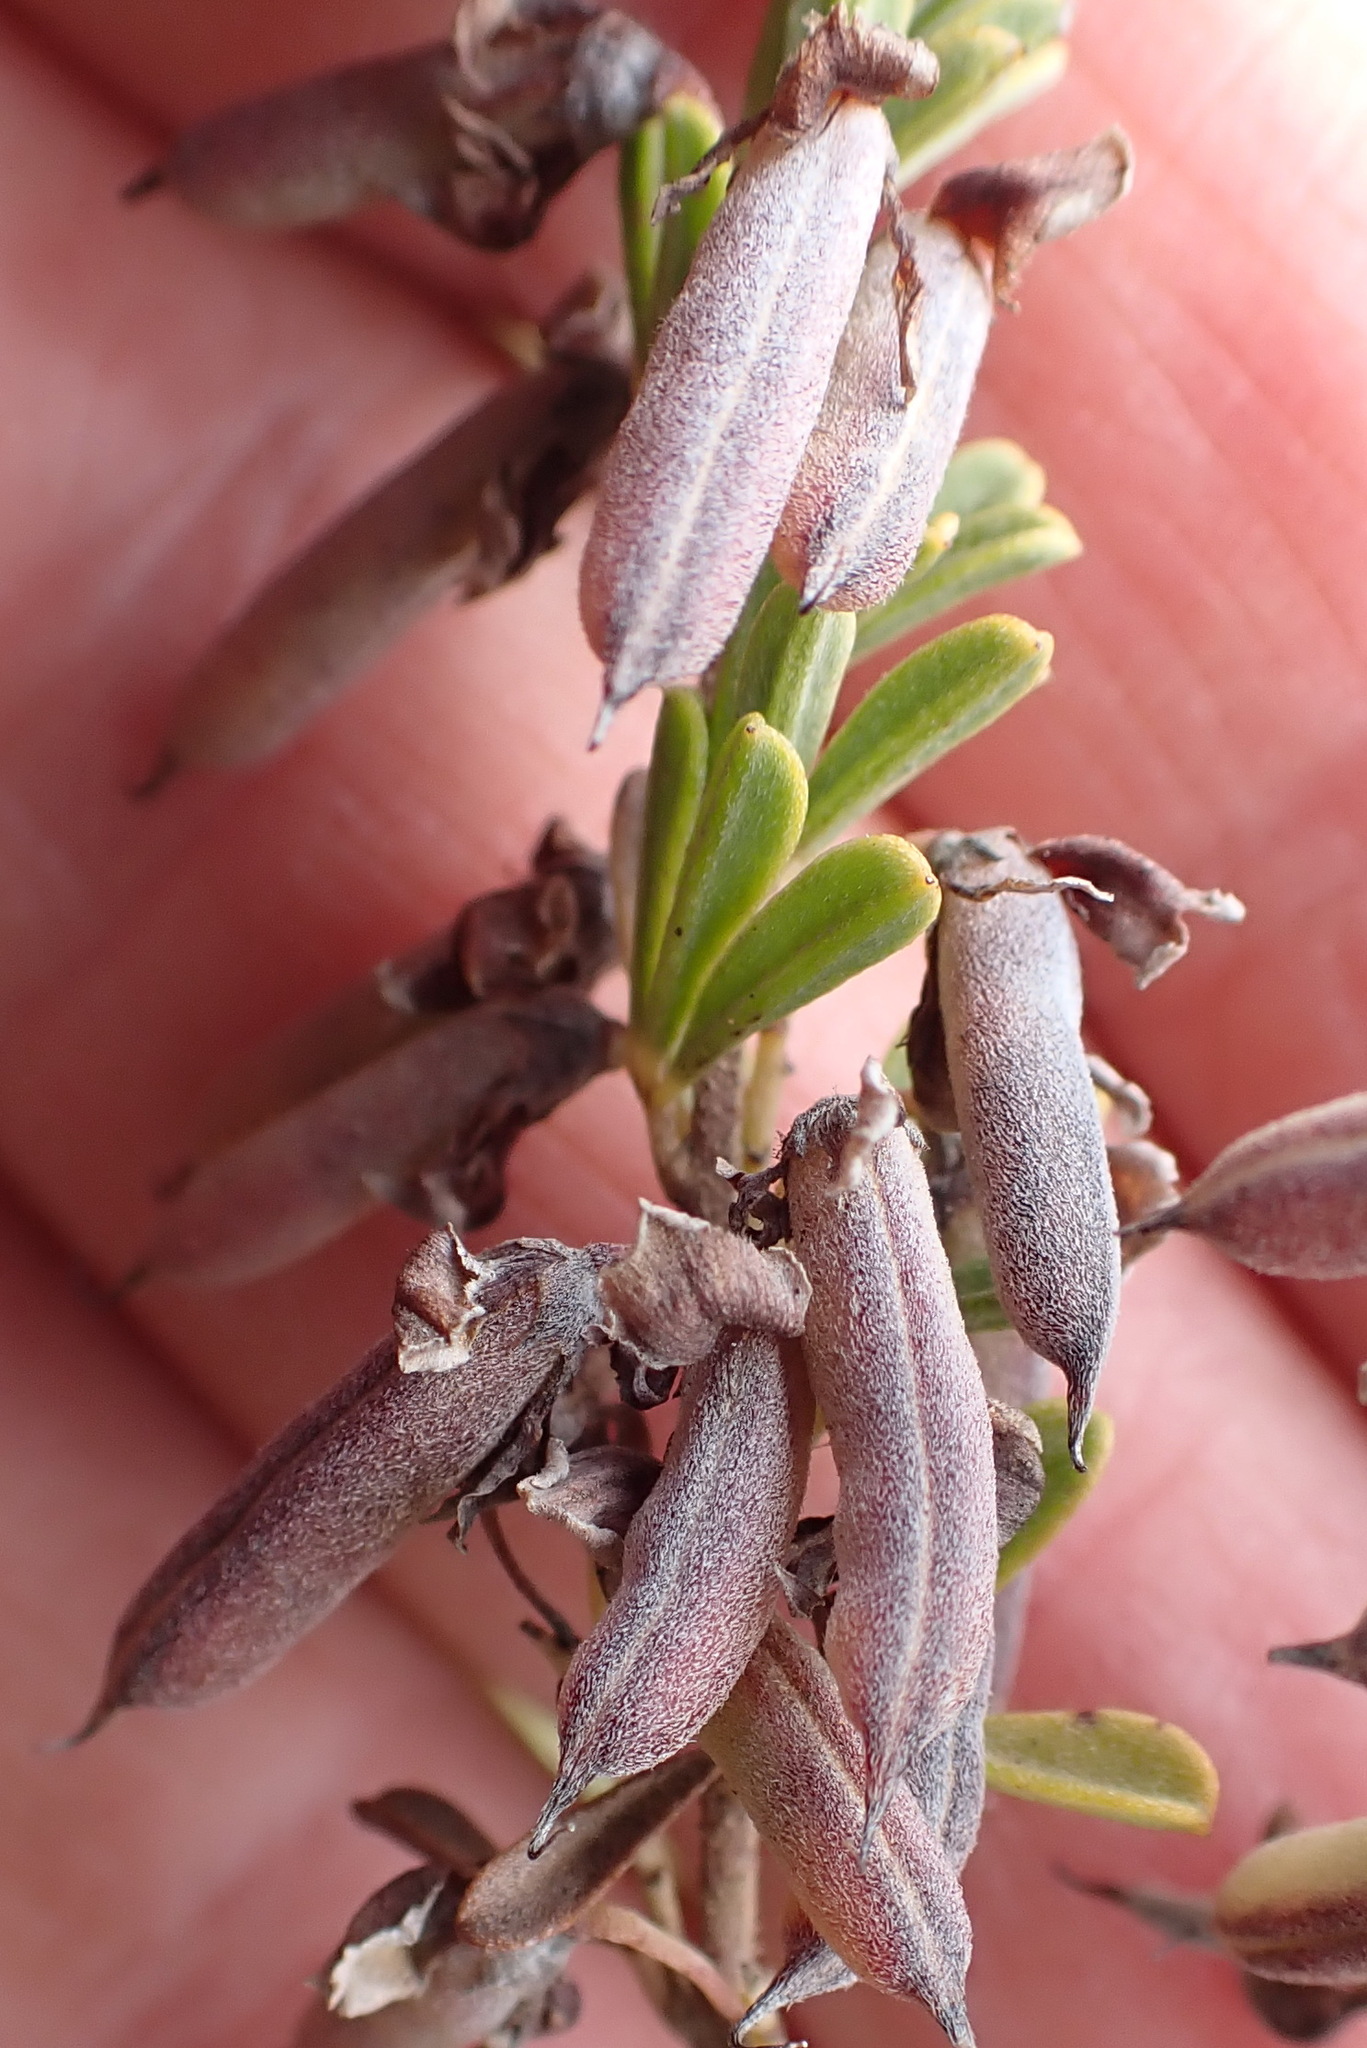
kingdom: Plantae
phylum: Tracheophyta
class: Magnoliopsida
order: Fabales
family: Fabaceae
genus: Indigofera
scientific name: Indigofera flabellata
